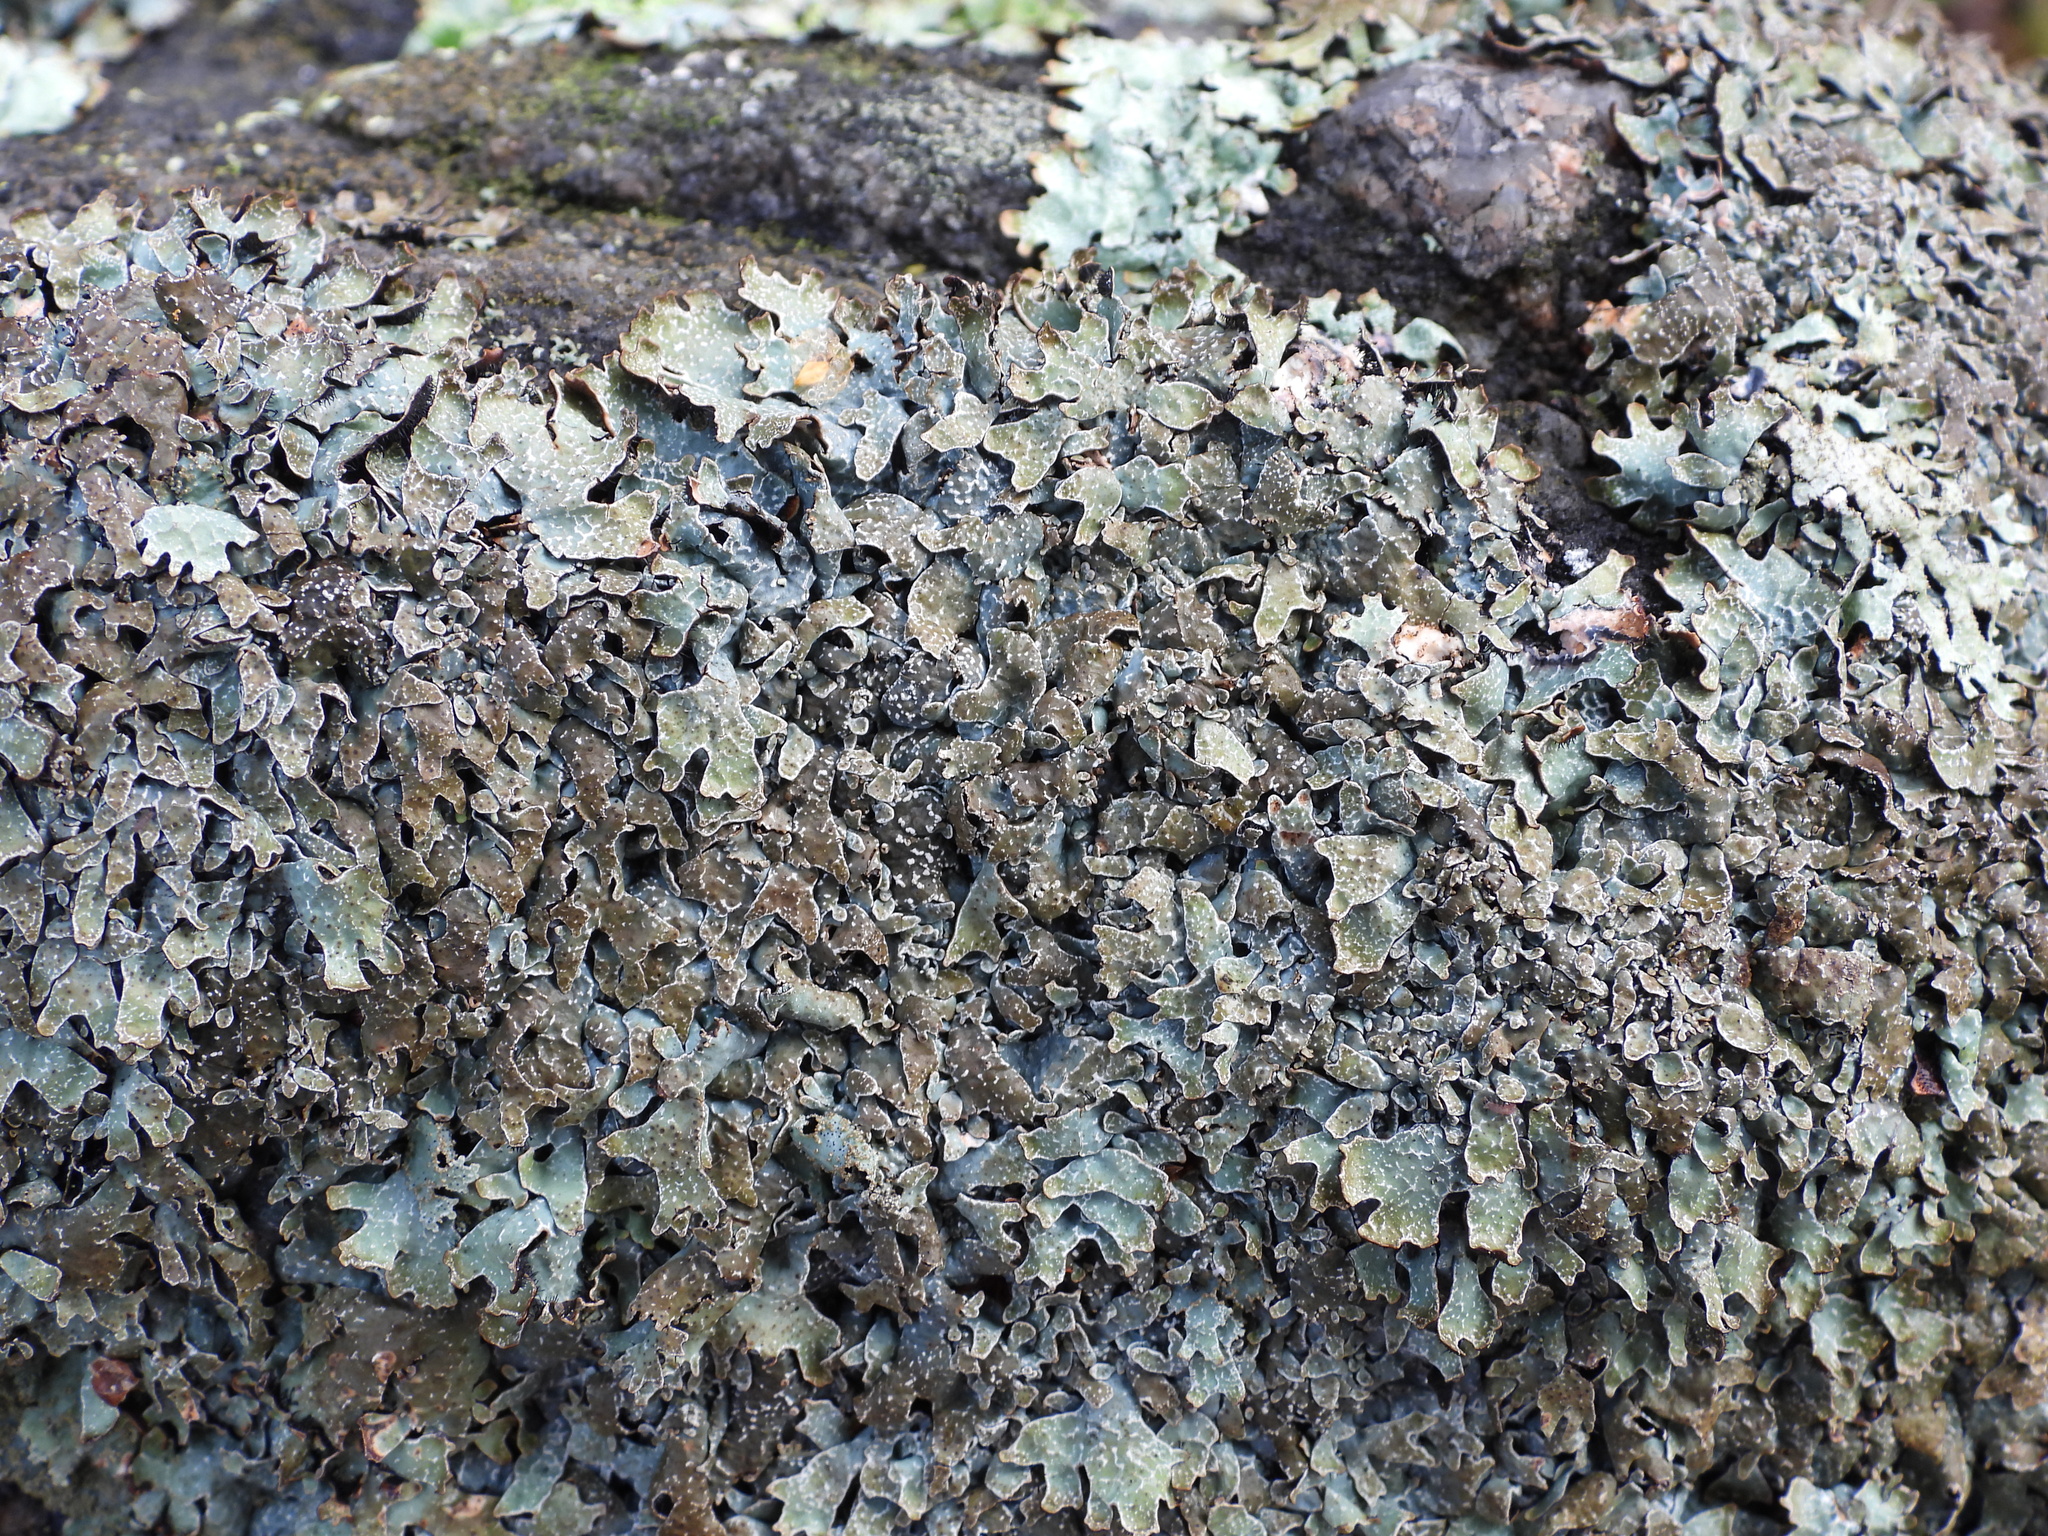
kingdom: Fungi
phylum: Ascomycota
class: Lecanoromycetes
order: Lecanorales
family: Parmeliaceae
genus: Parmelia
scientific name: Parmelia omphalodes
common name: Smoky crottle
